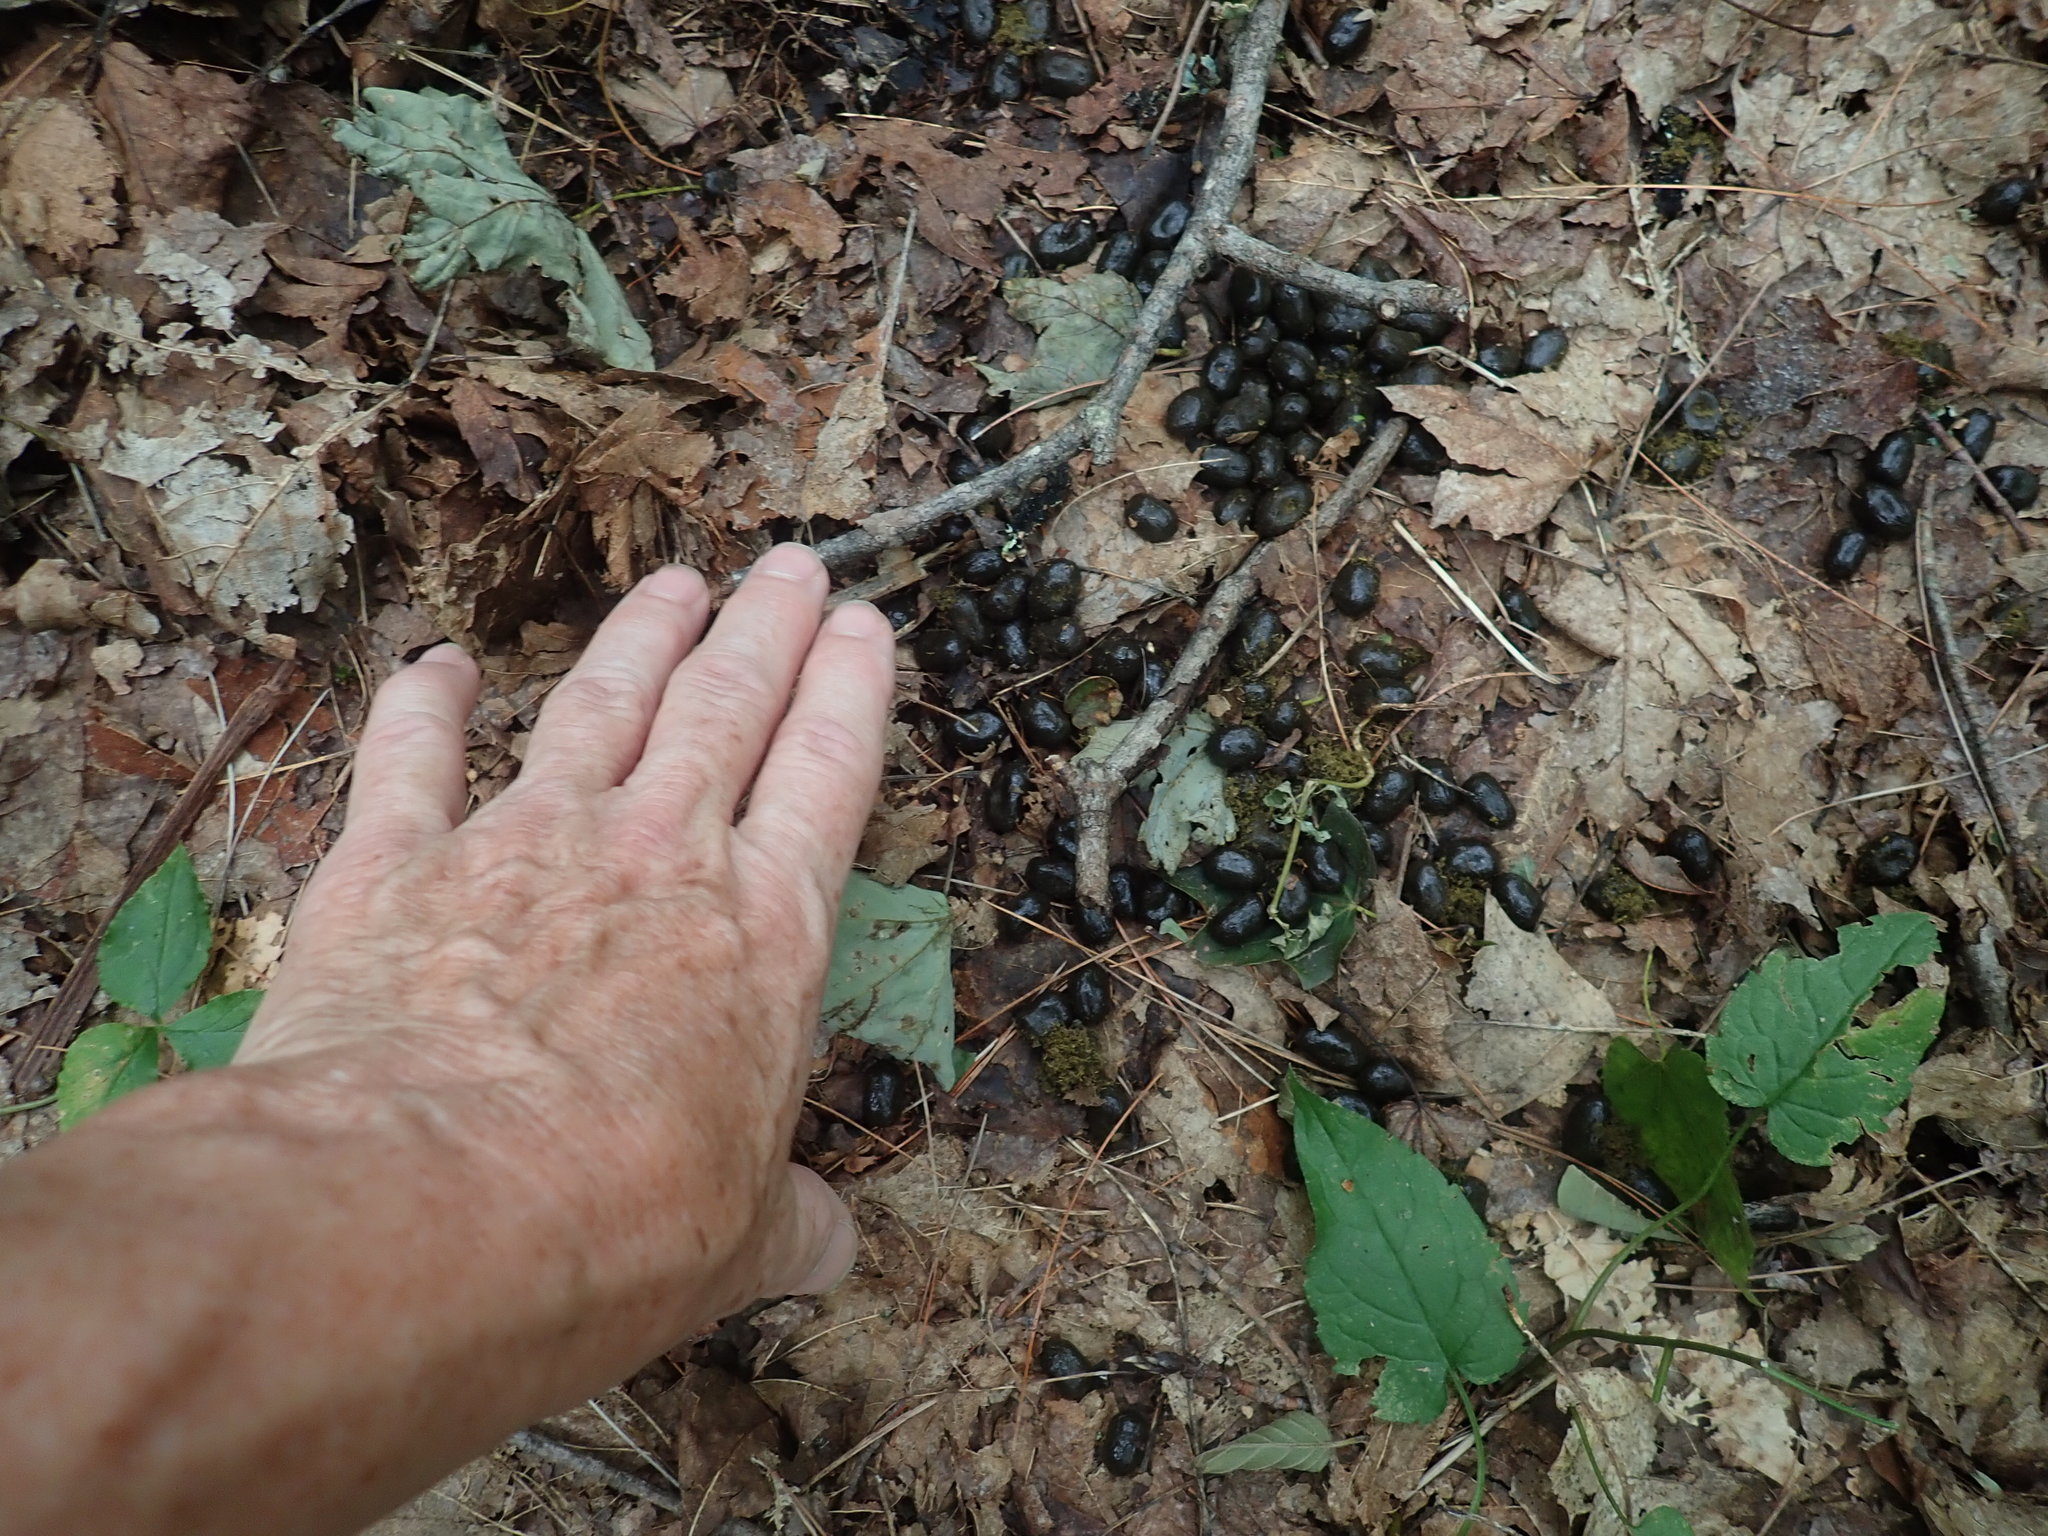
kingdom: Animalia
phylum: Chordata
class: Mammalia
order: Artiodactyla
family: Cervidae
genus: Odocoileus
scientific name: Odocoileus virginianus
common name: White-tailed deer
